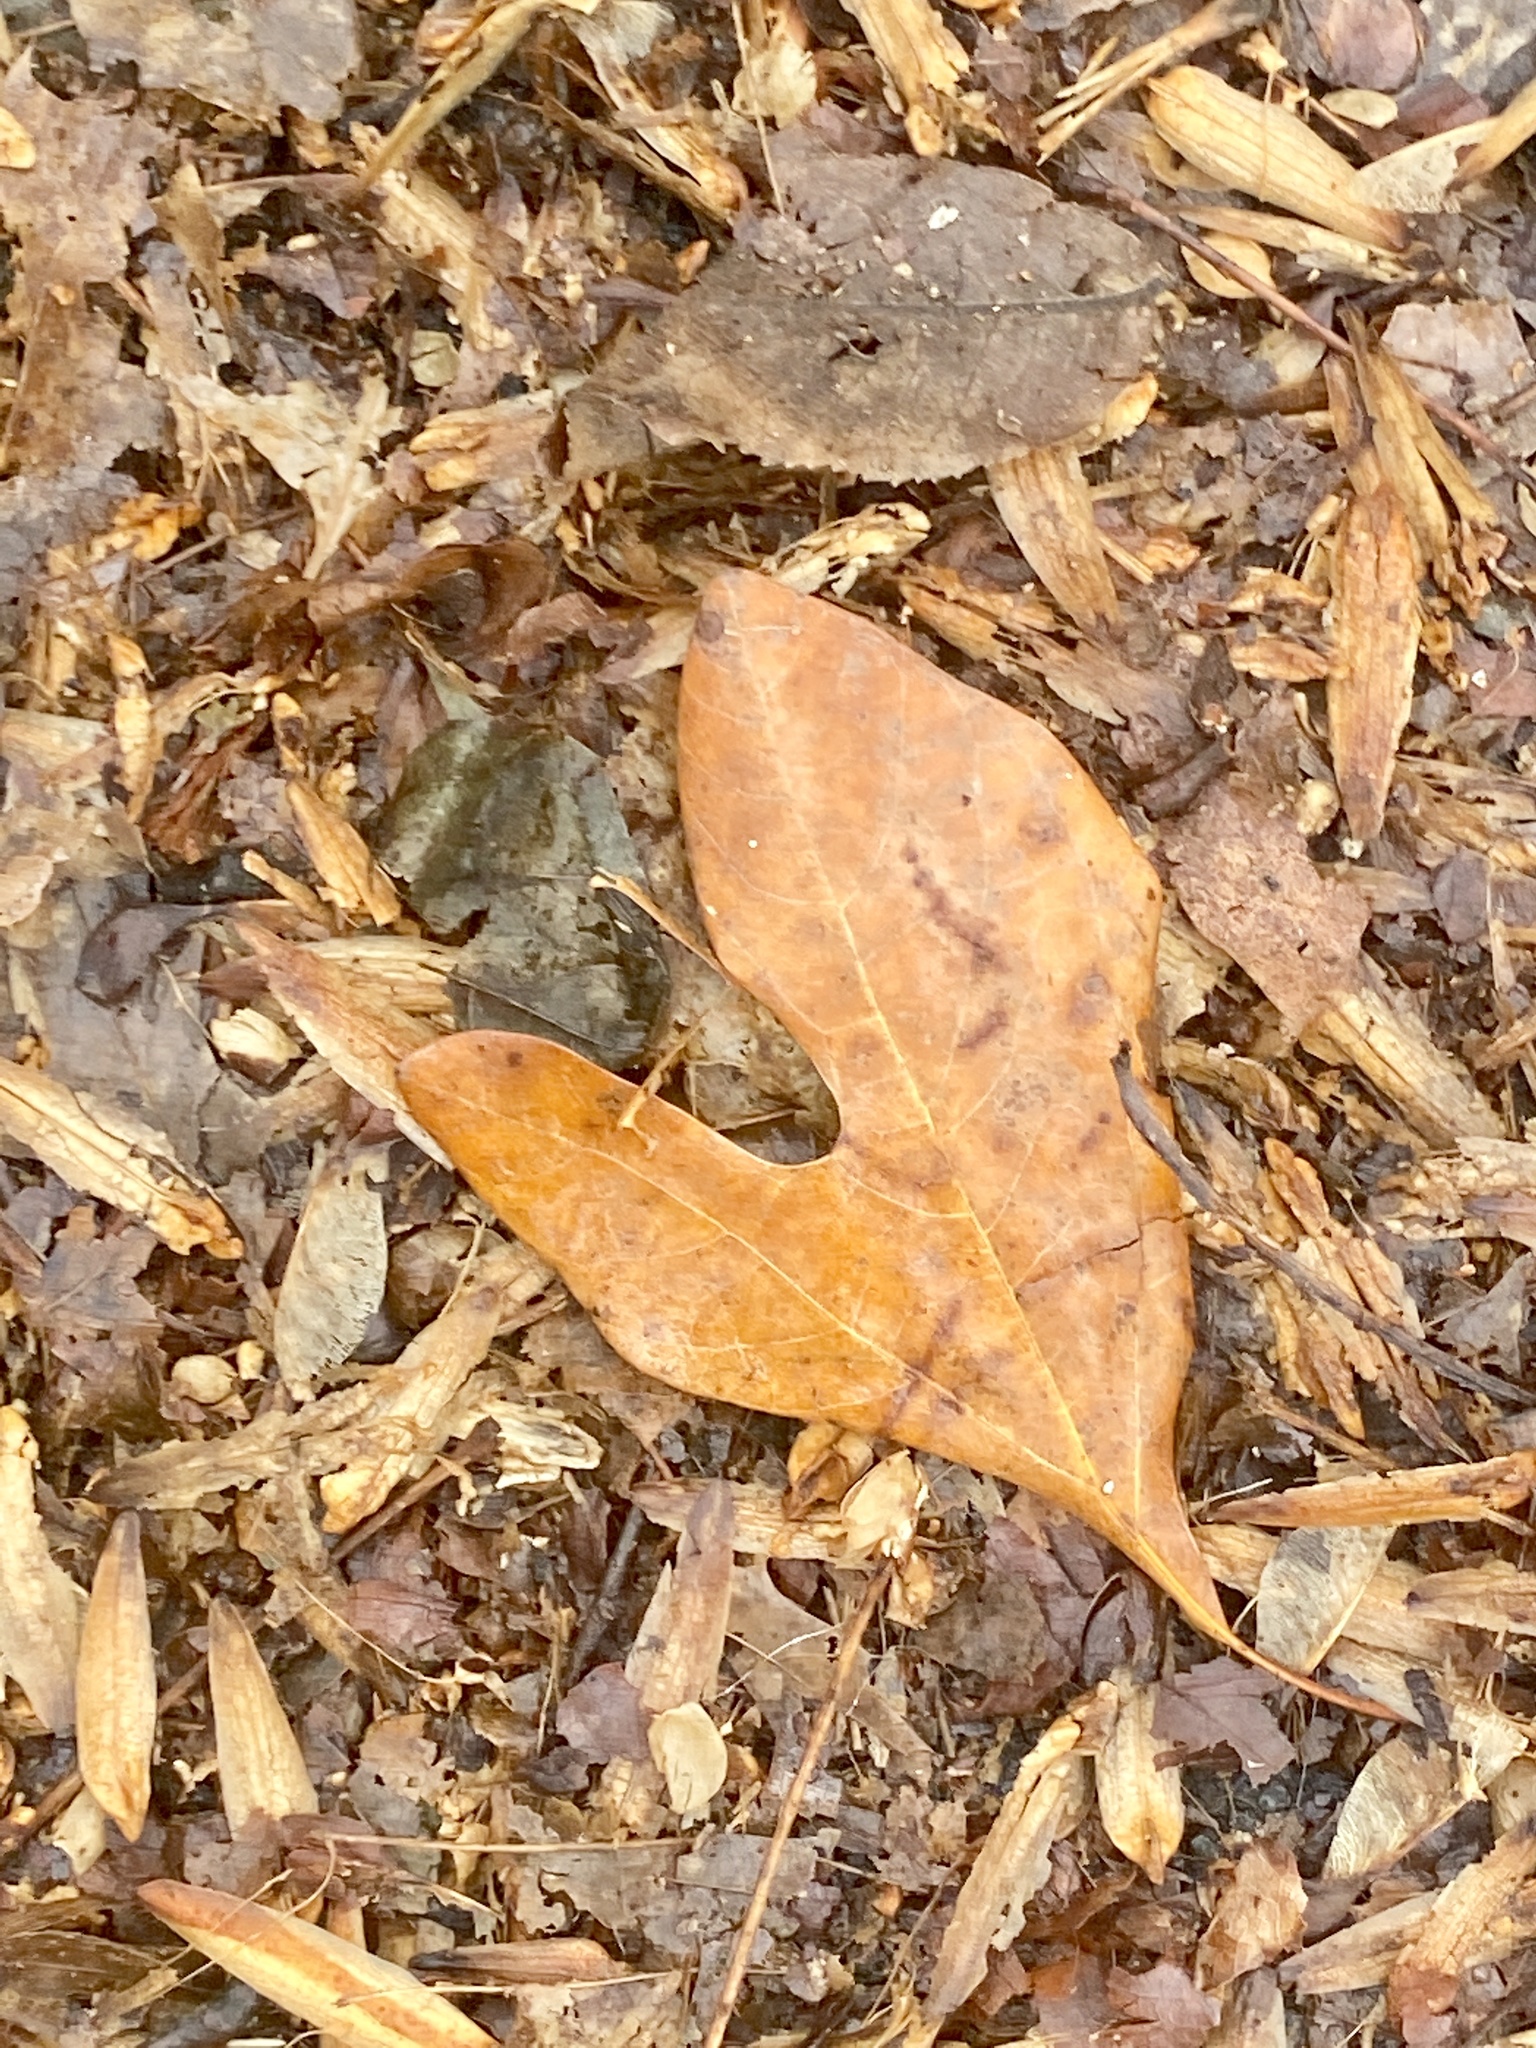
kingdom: Plantae
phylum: Tracheophyta
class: Magnoliopsida
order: Laurales
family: Lauraceae
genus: Sassafras
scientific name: Sassafras albidum
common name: Sassafras
